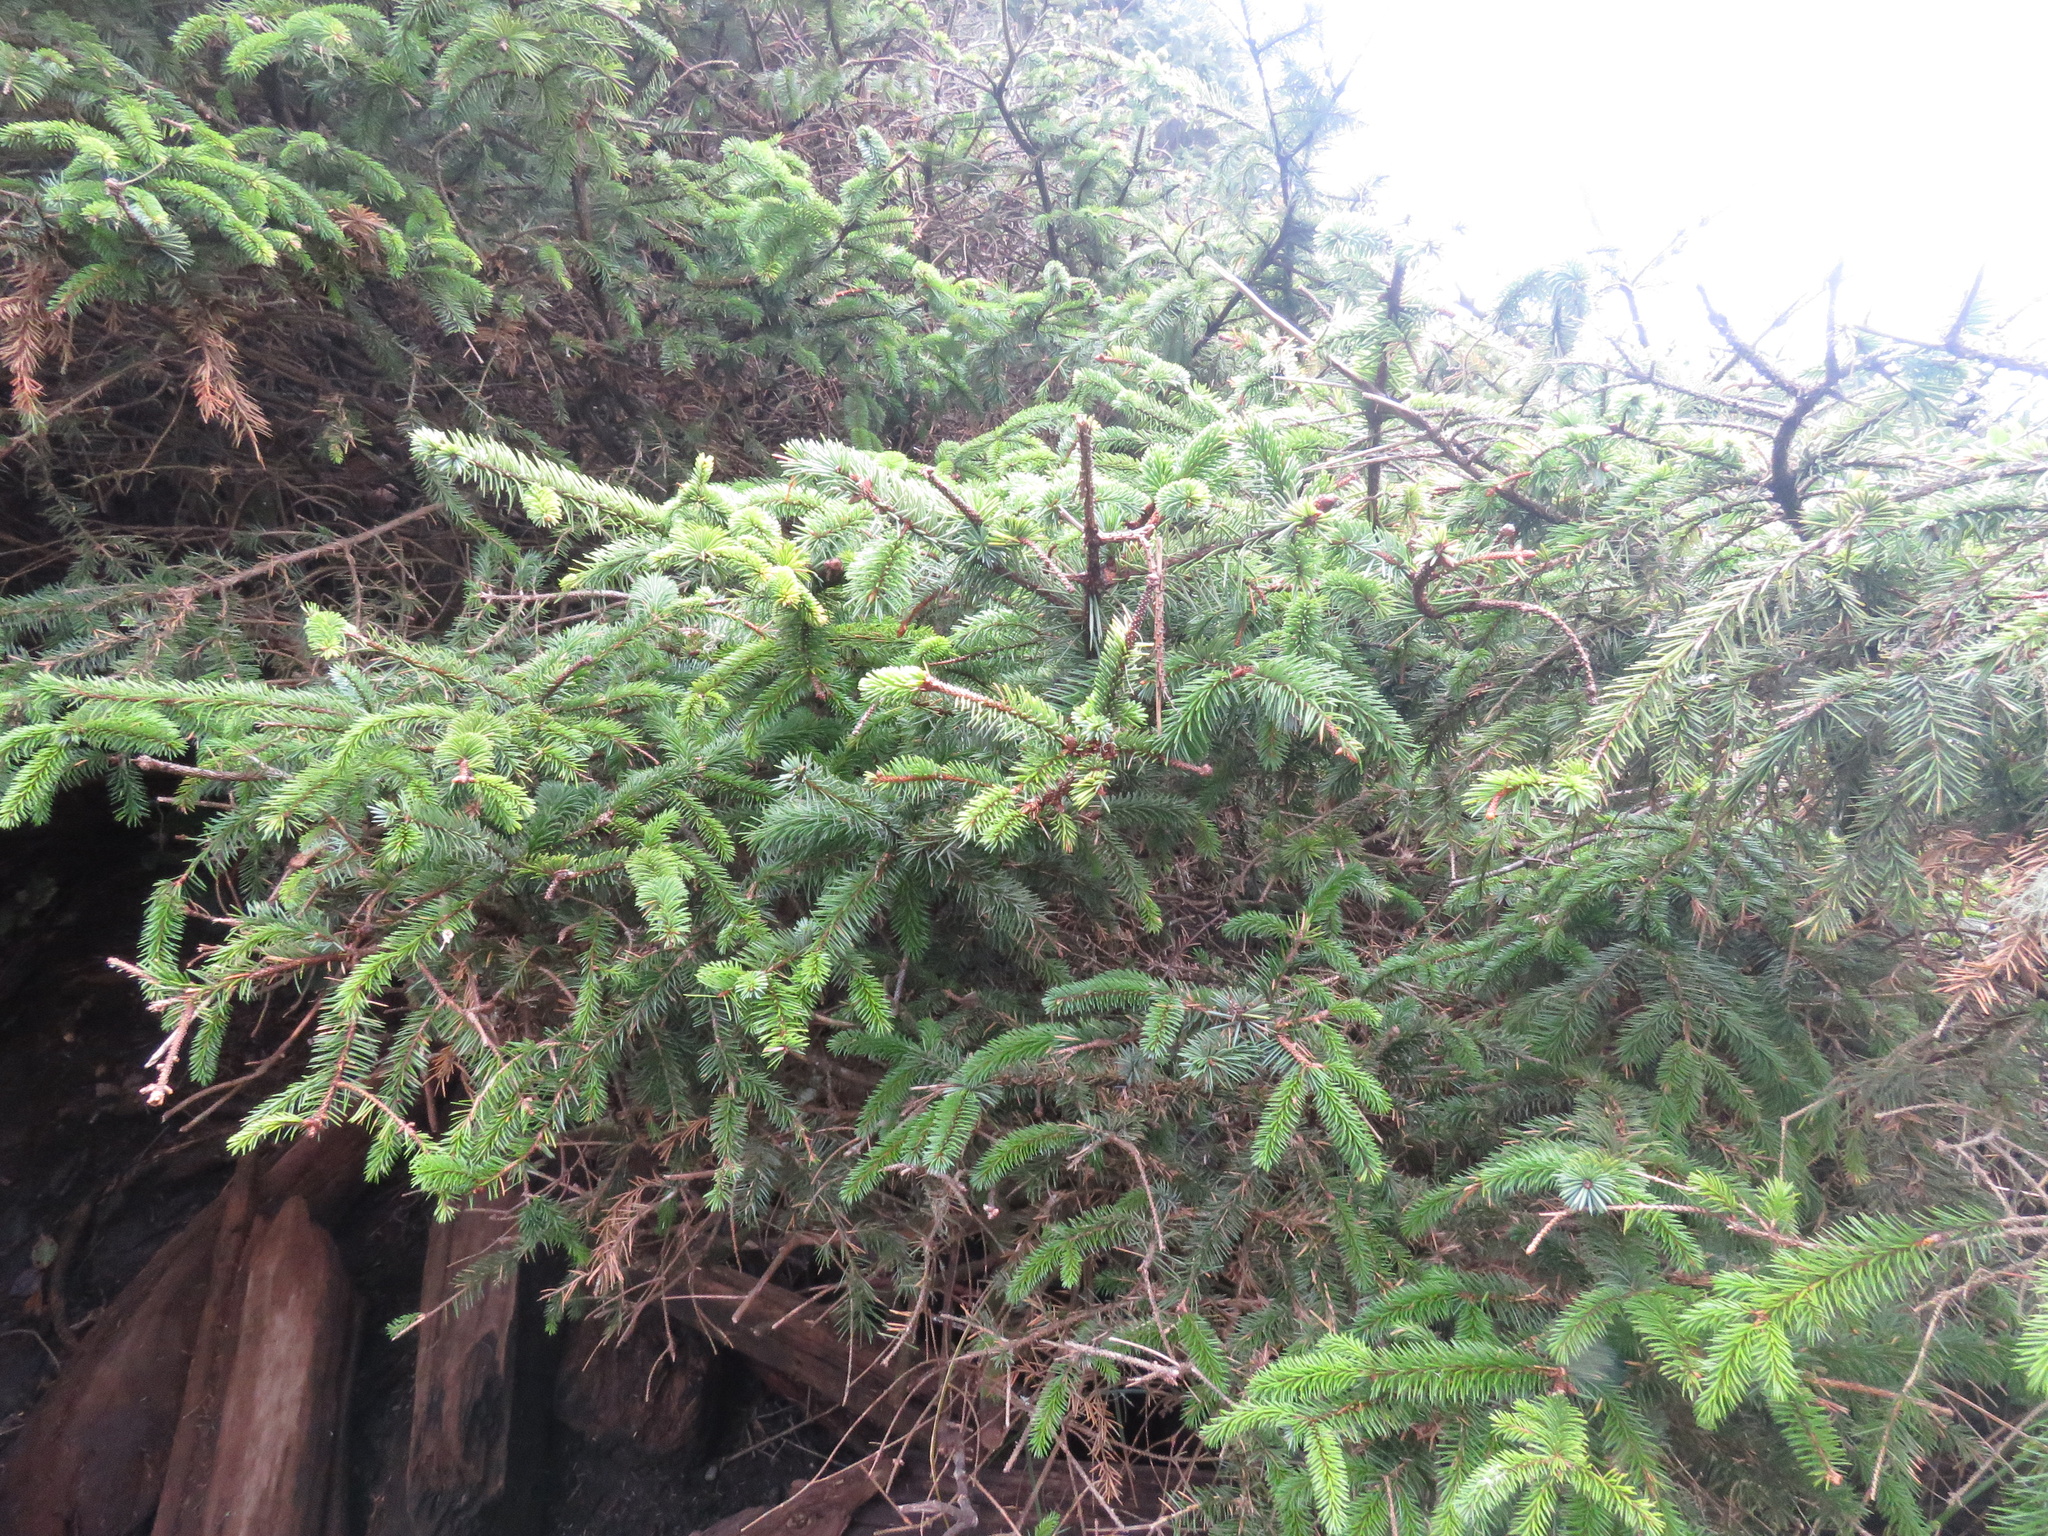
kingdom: Plantae
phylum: Tracheophyta
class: Pinopsida
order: Pinales
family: Pinaceae
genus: Picea
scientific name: Picea sitchensis
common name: Sitka spruce
